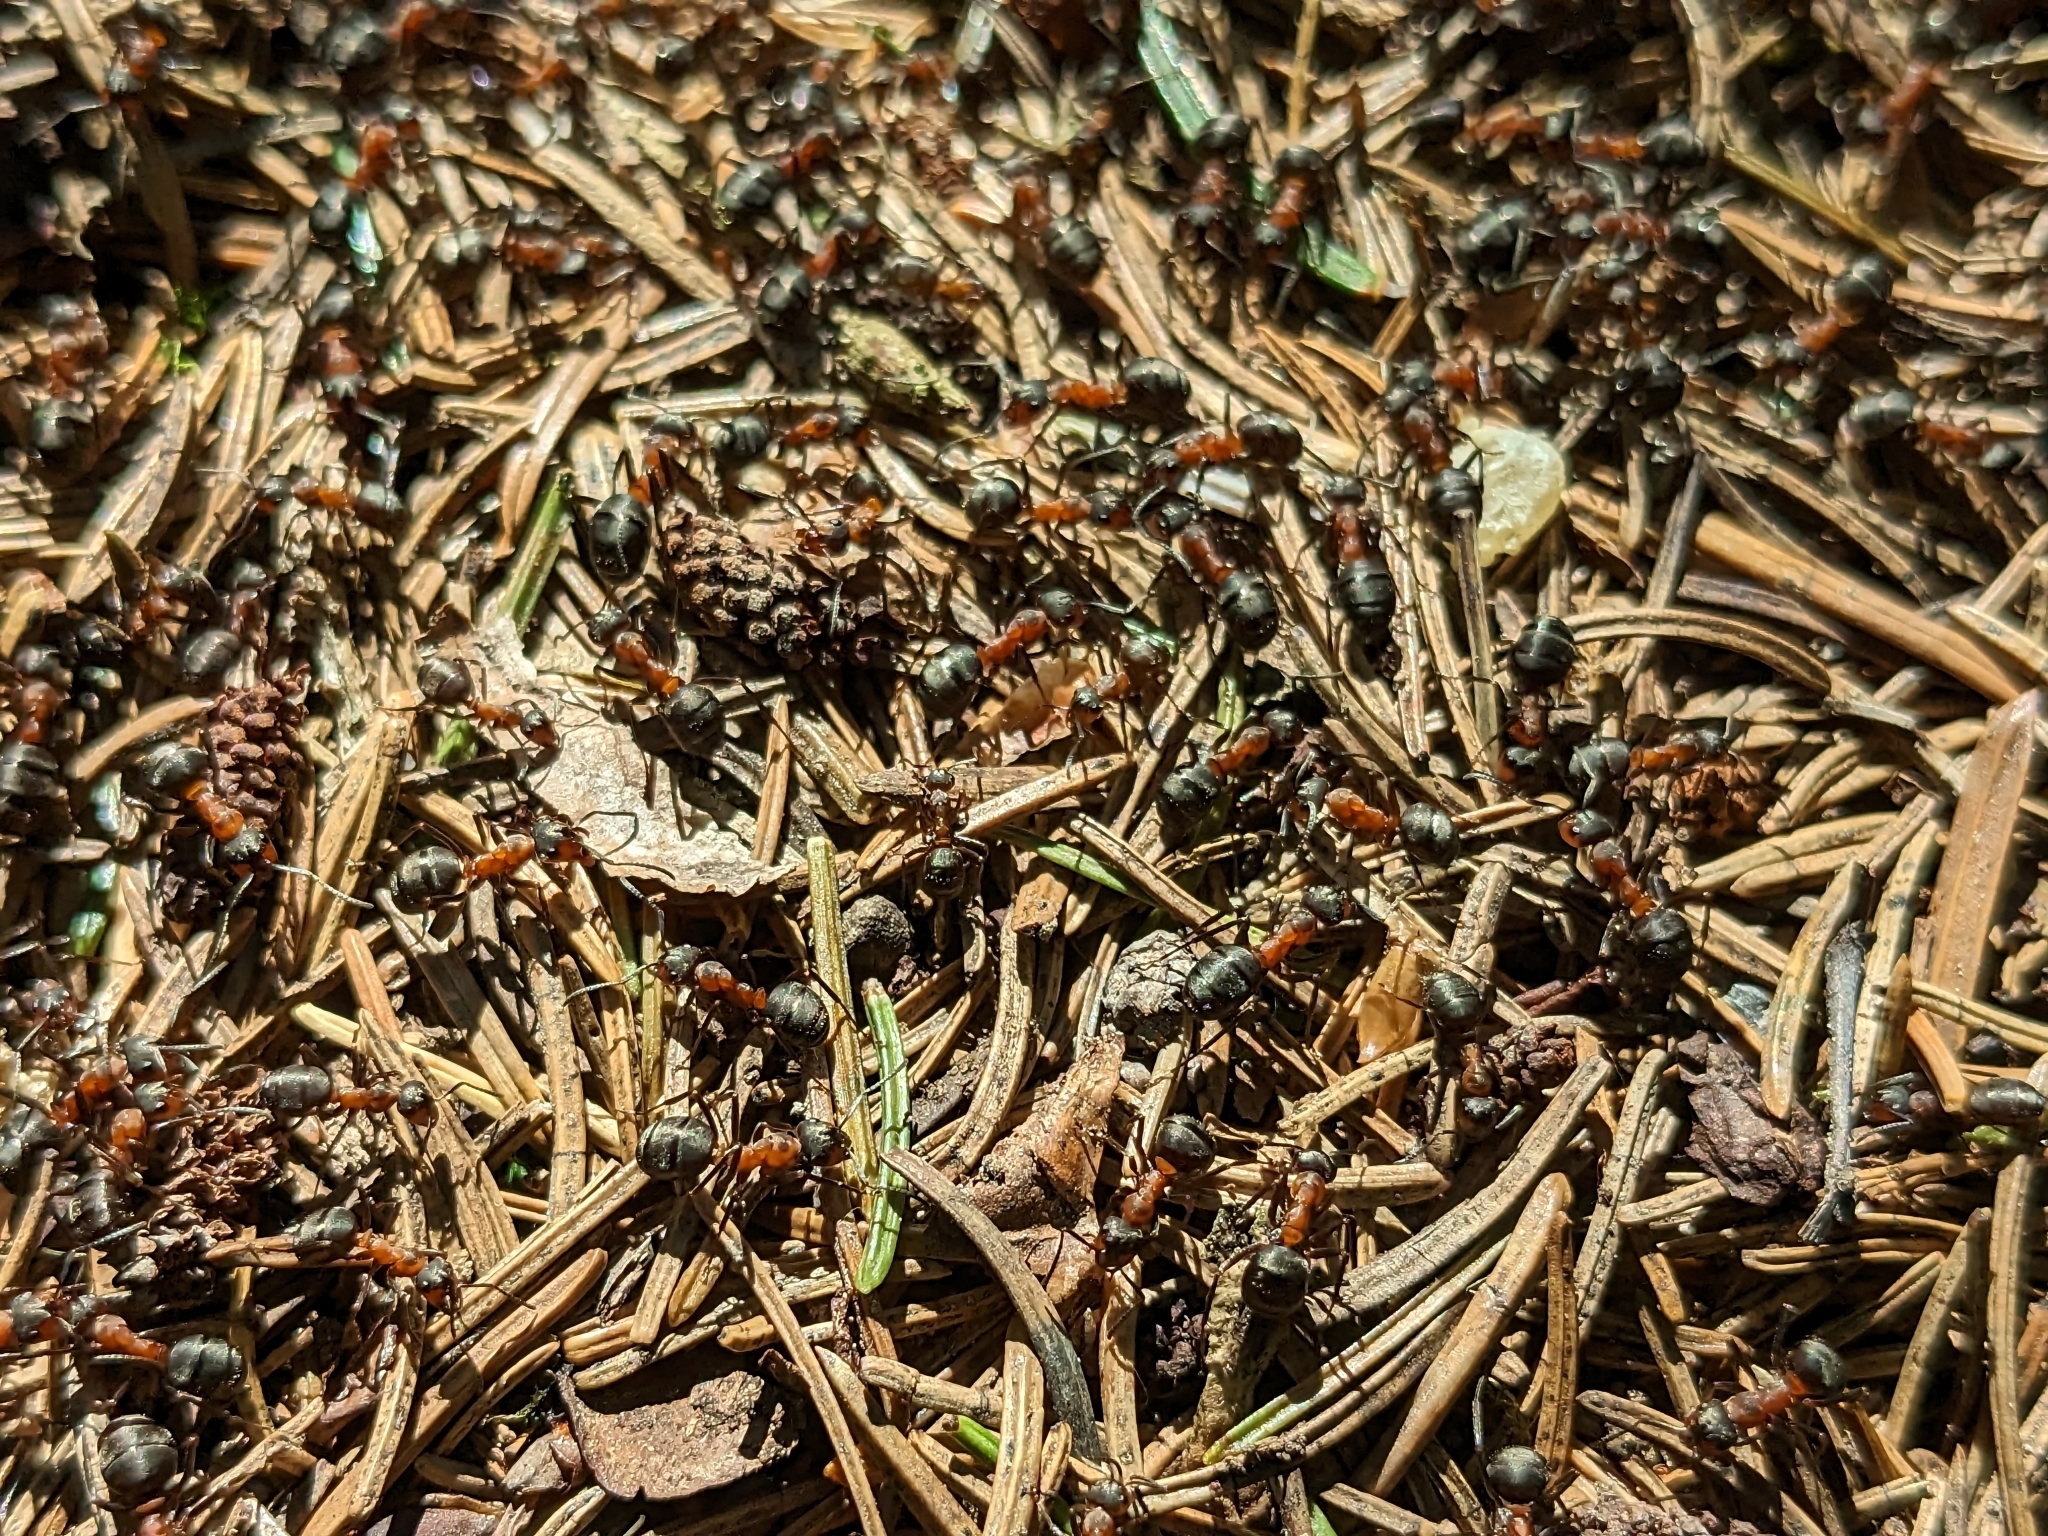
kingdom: Animalia
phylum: Arthropoda
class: Insecta
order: Hymenoptera
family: Formicidae
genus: Formica
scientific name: Formica rufa
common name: Red wood ant
